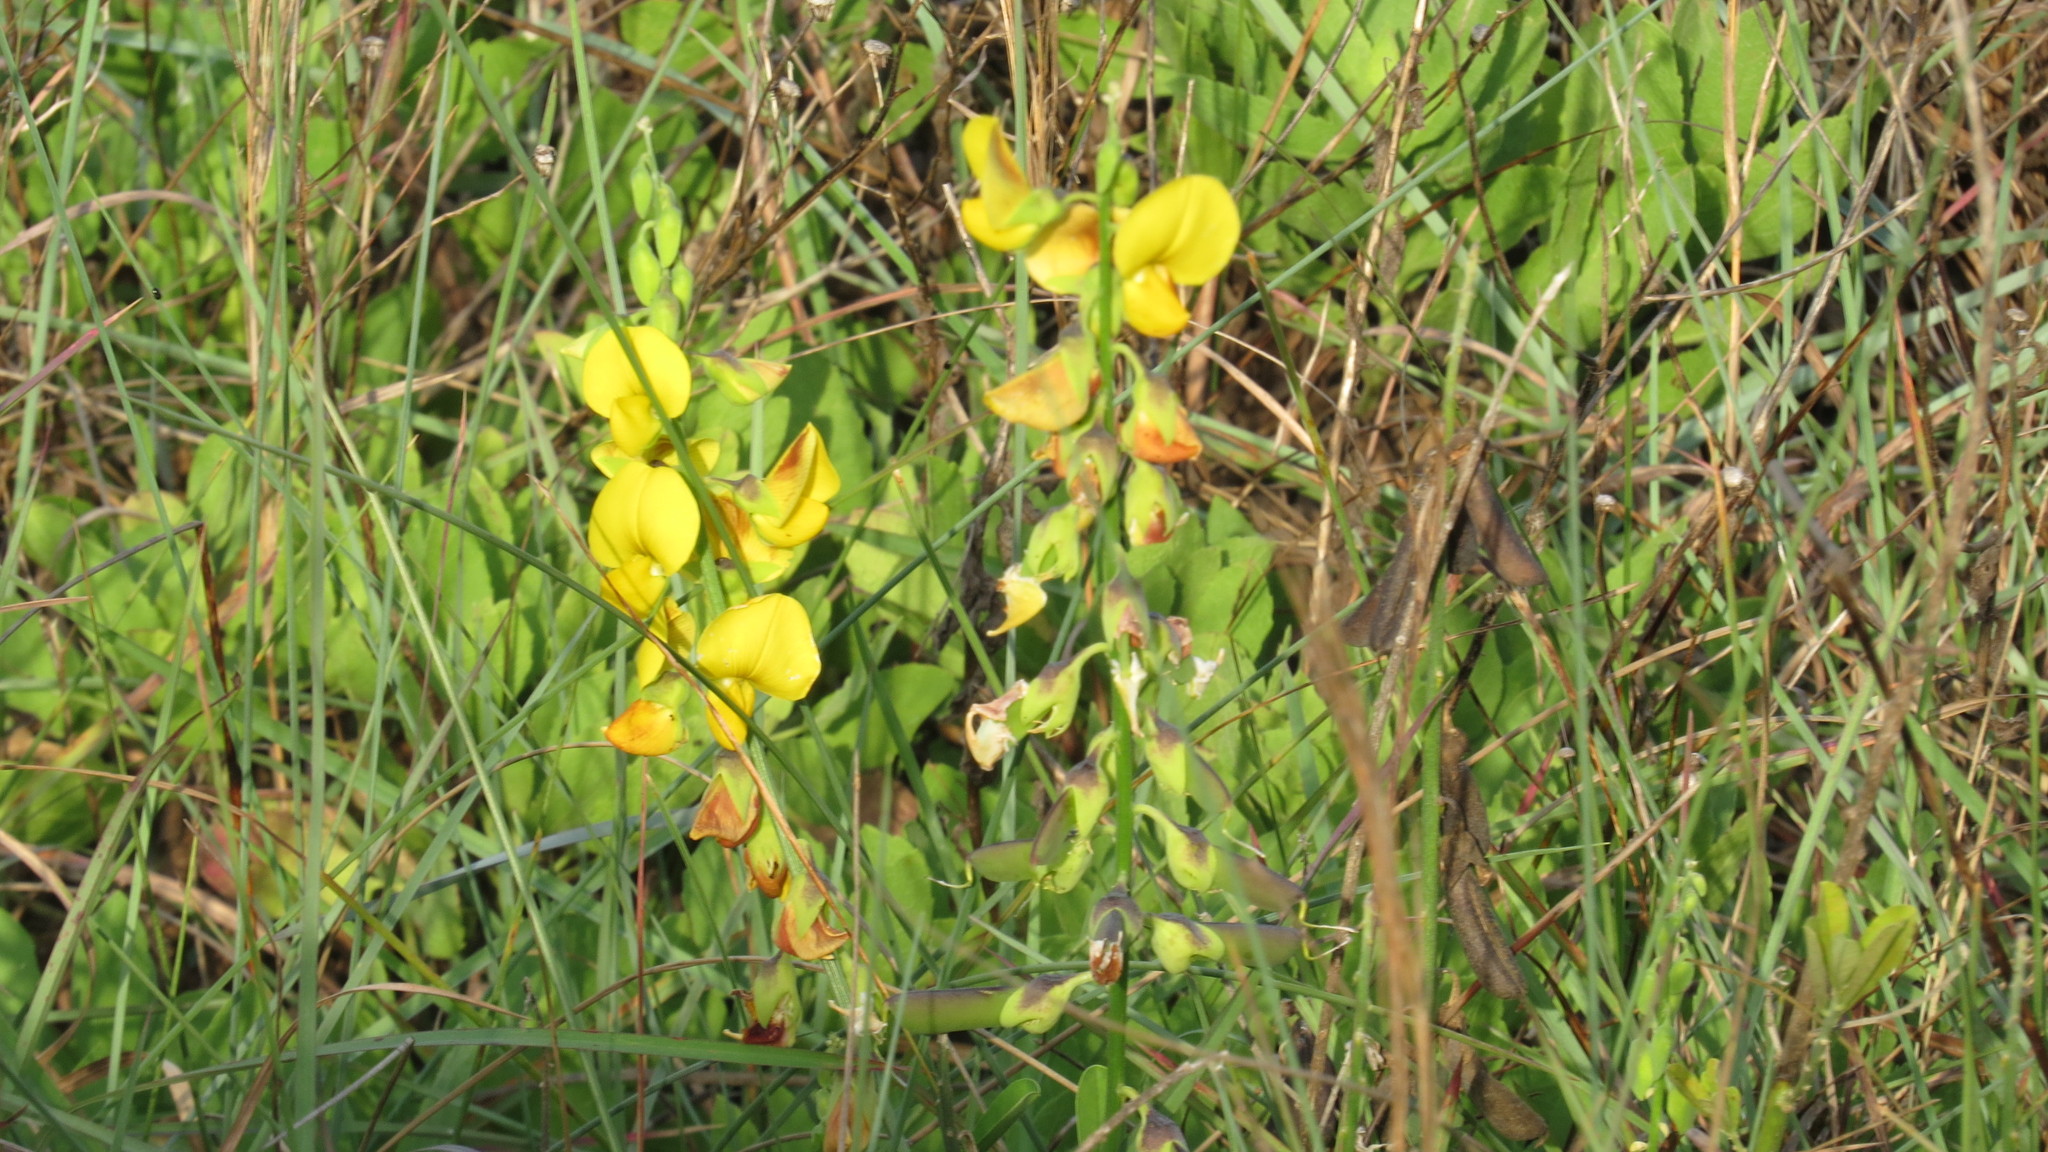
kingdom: Plantae
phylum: Tracheophyta
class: Magnoliopsida
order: Fabales
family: Fabaceae
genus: Crotalaria
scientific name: Crotalaria retusa
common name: Rattleweed
